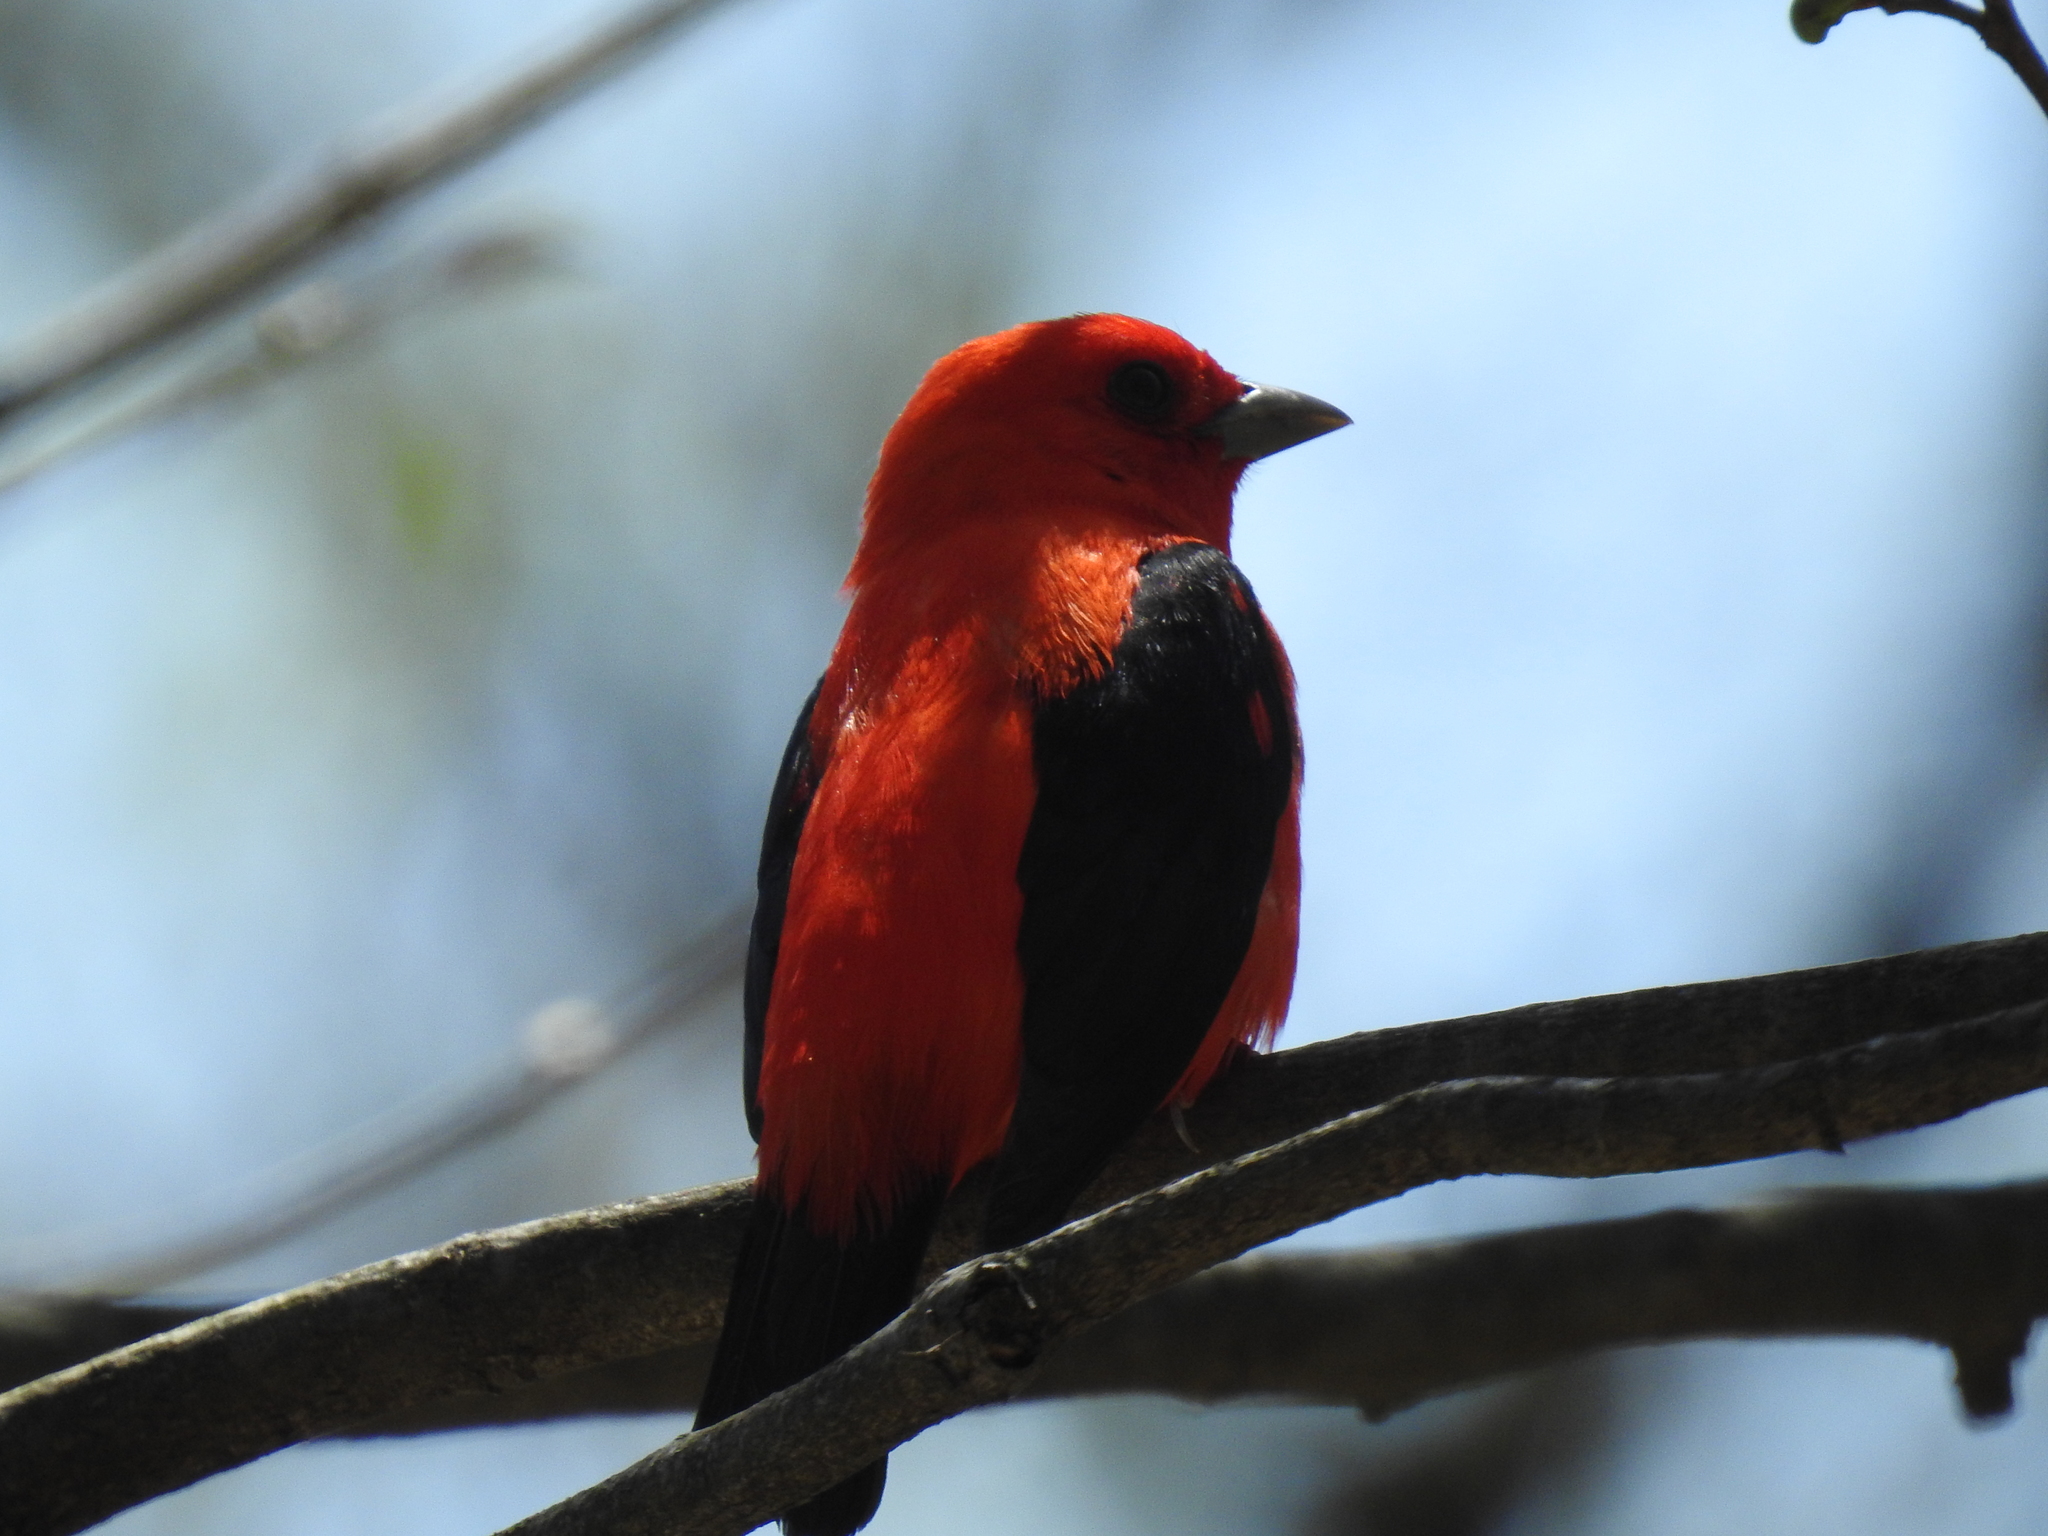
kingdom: Animalia
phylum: Chordata
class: Aves
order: Passeriformes
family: Cardinalidae
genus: Piranga
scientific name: Piranga olivacea
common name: Scarlet tanager
